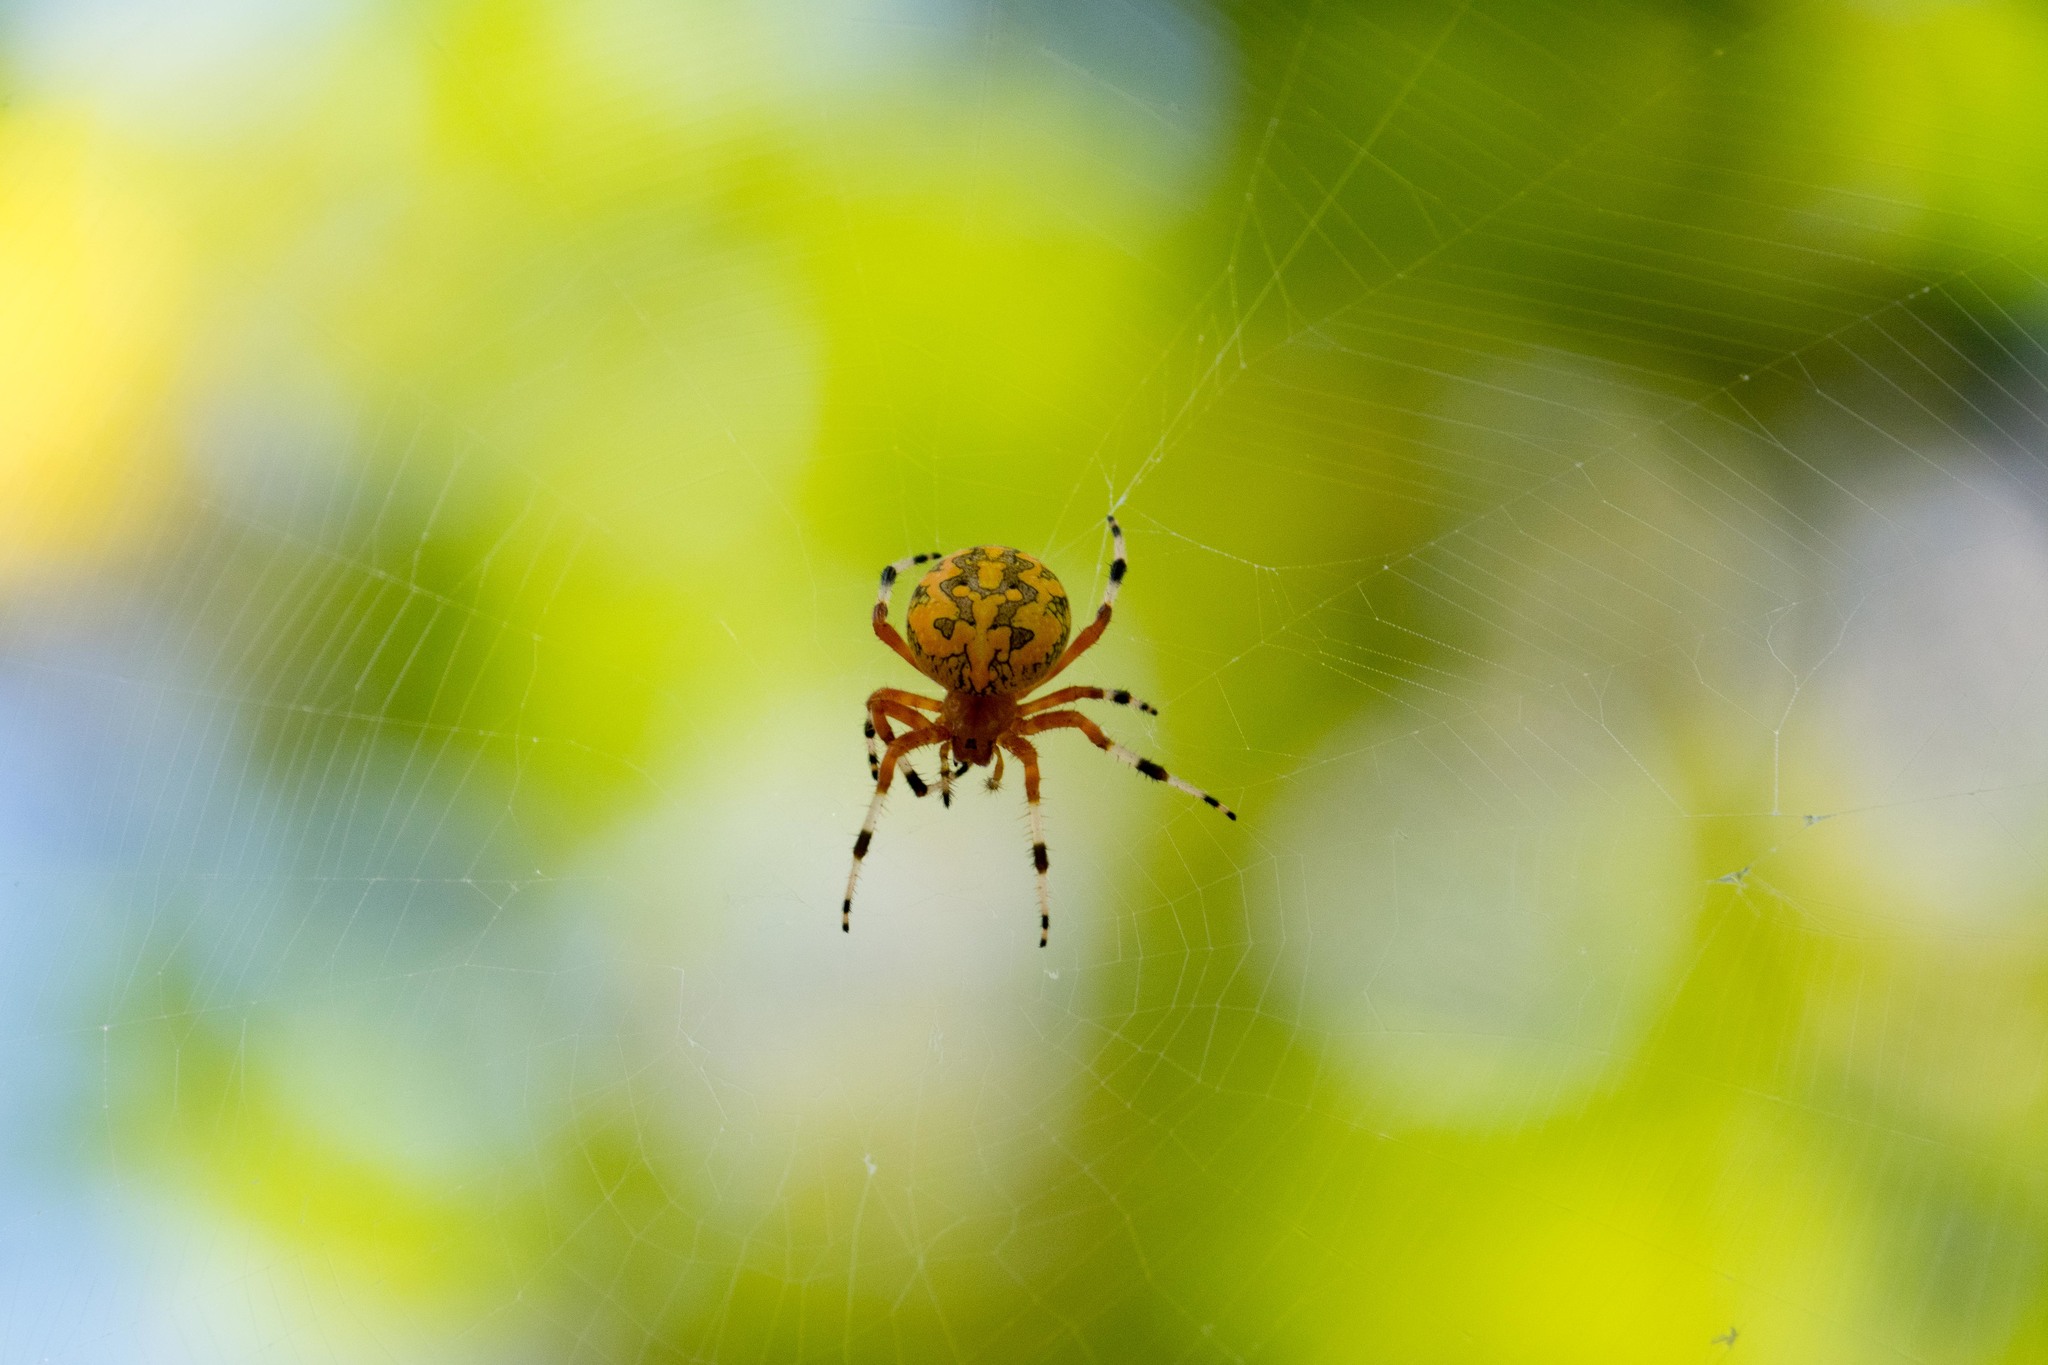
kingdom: Animalia
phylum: Arthropoda
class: Arachnida
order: Araneae
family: Araneidae
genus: Araneus
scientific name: Araneus marmoreus
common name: Marbled orbweaver
